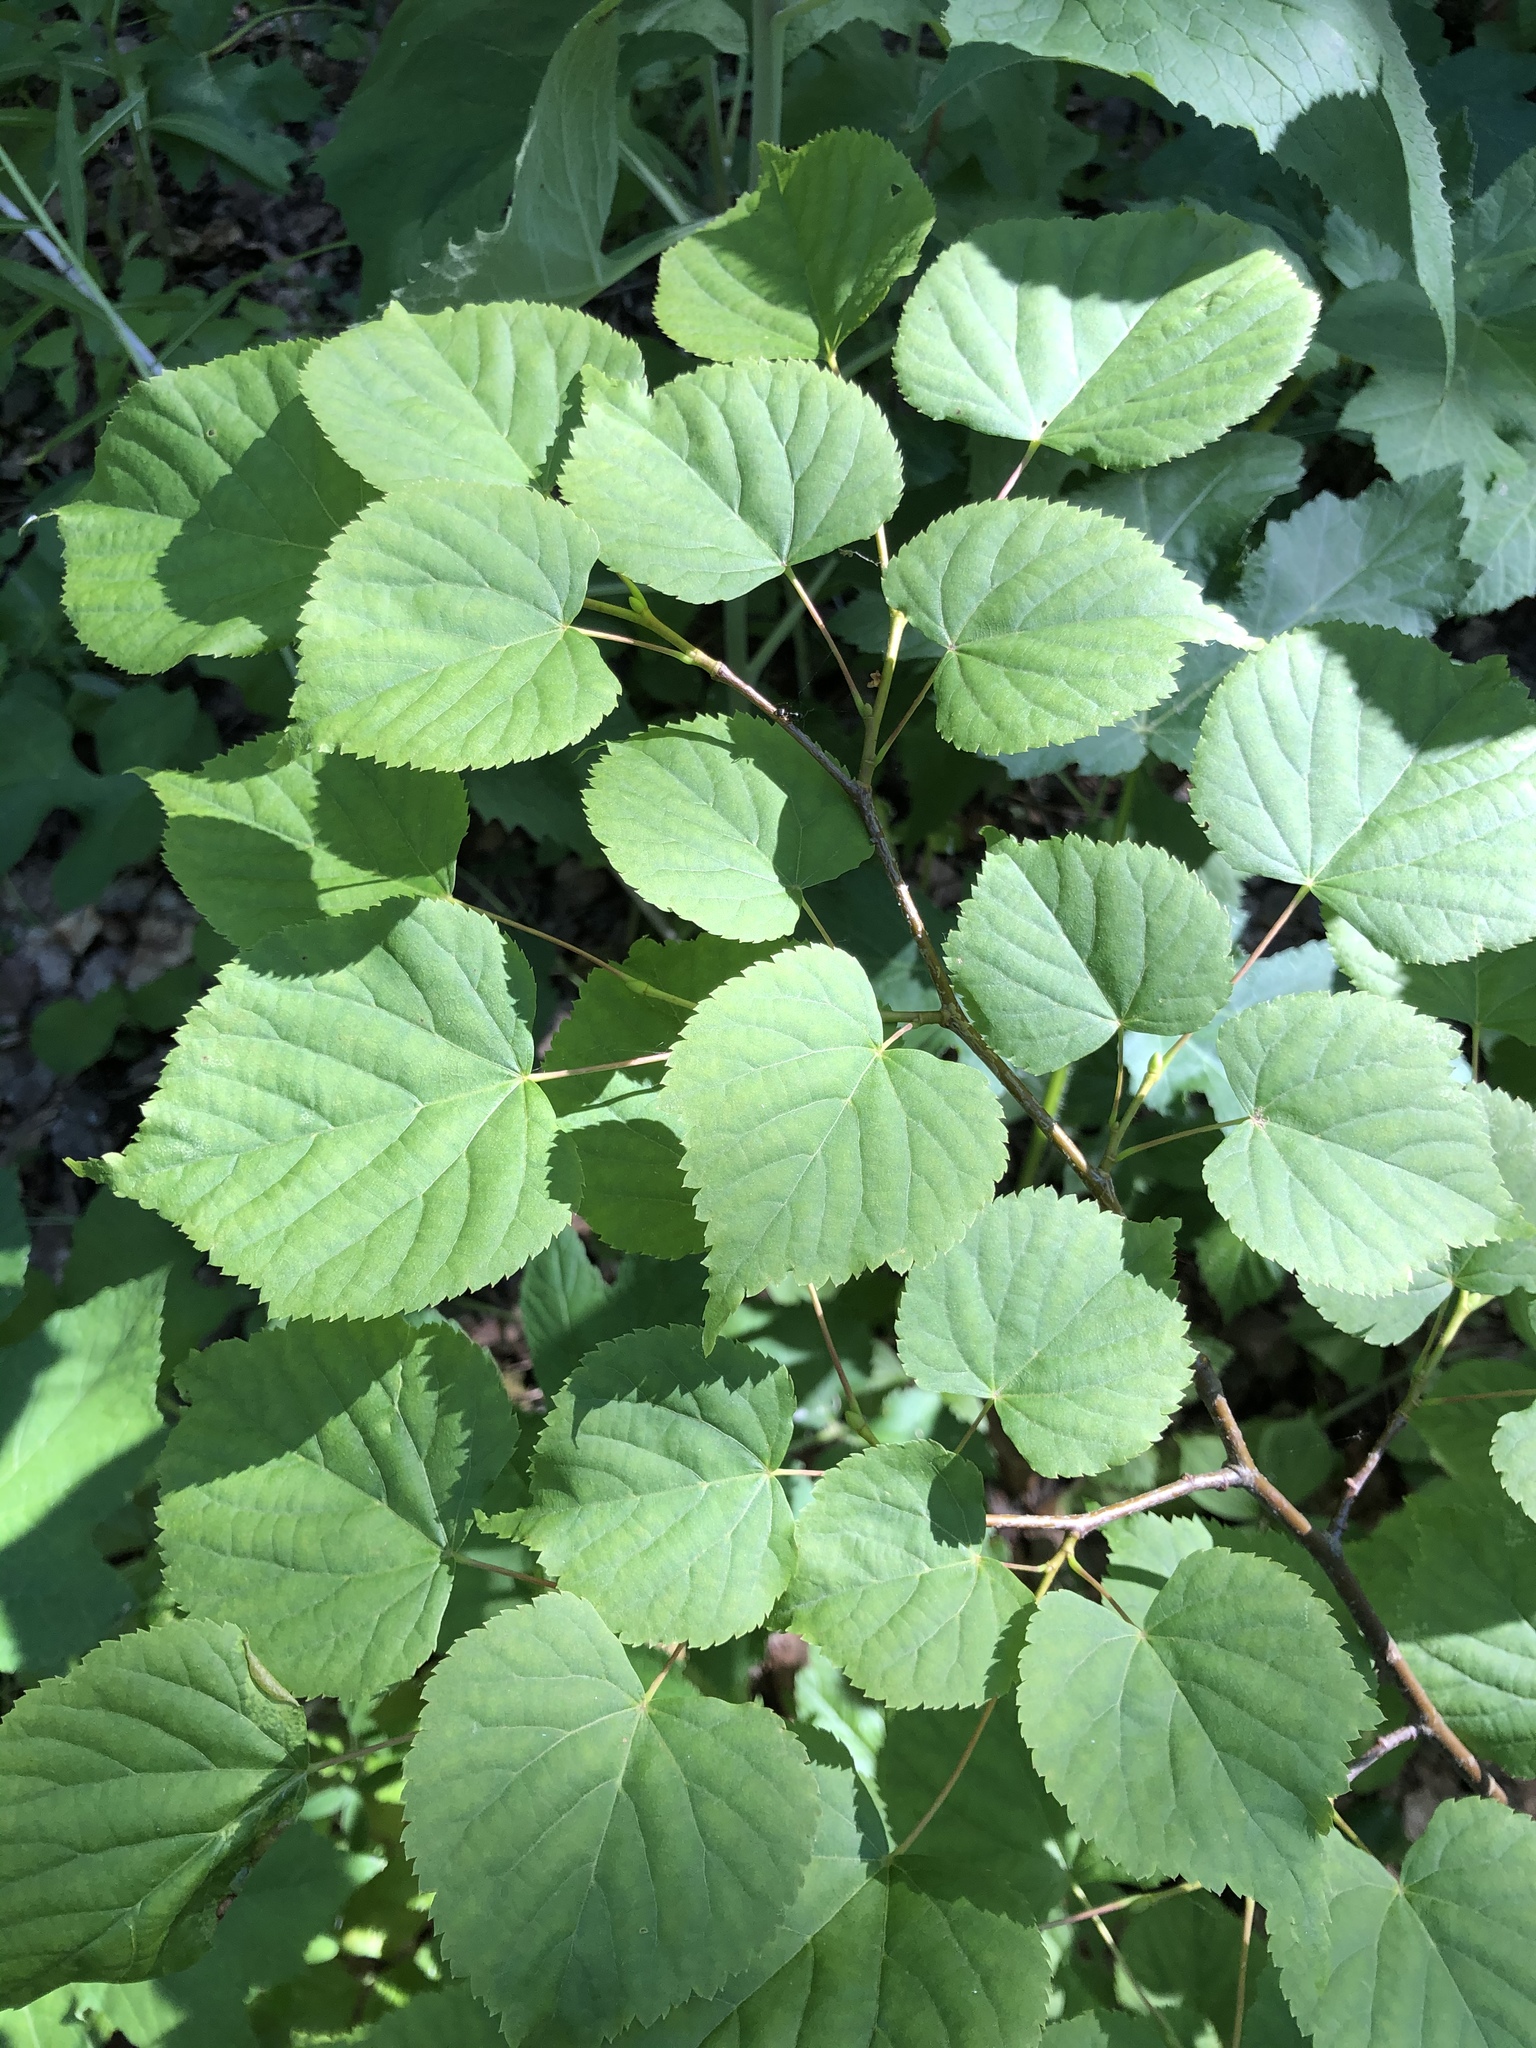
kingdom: Plantae
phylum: Tracheophyta
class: Magnoliopsida
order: Malvales
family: Malvaceae
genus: Tilia
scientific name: Tilia cordata
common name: Small-leaved lime
